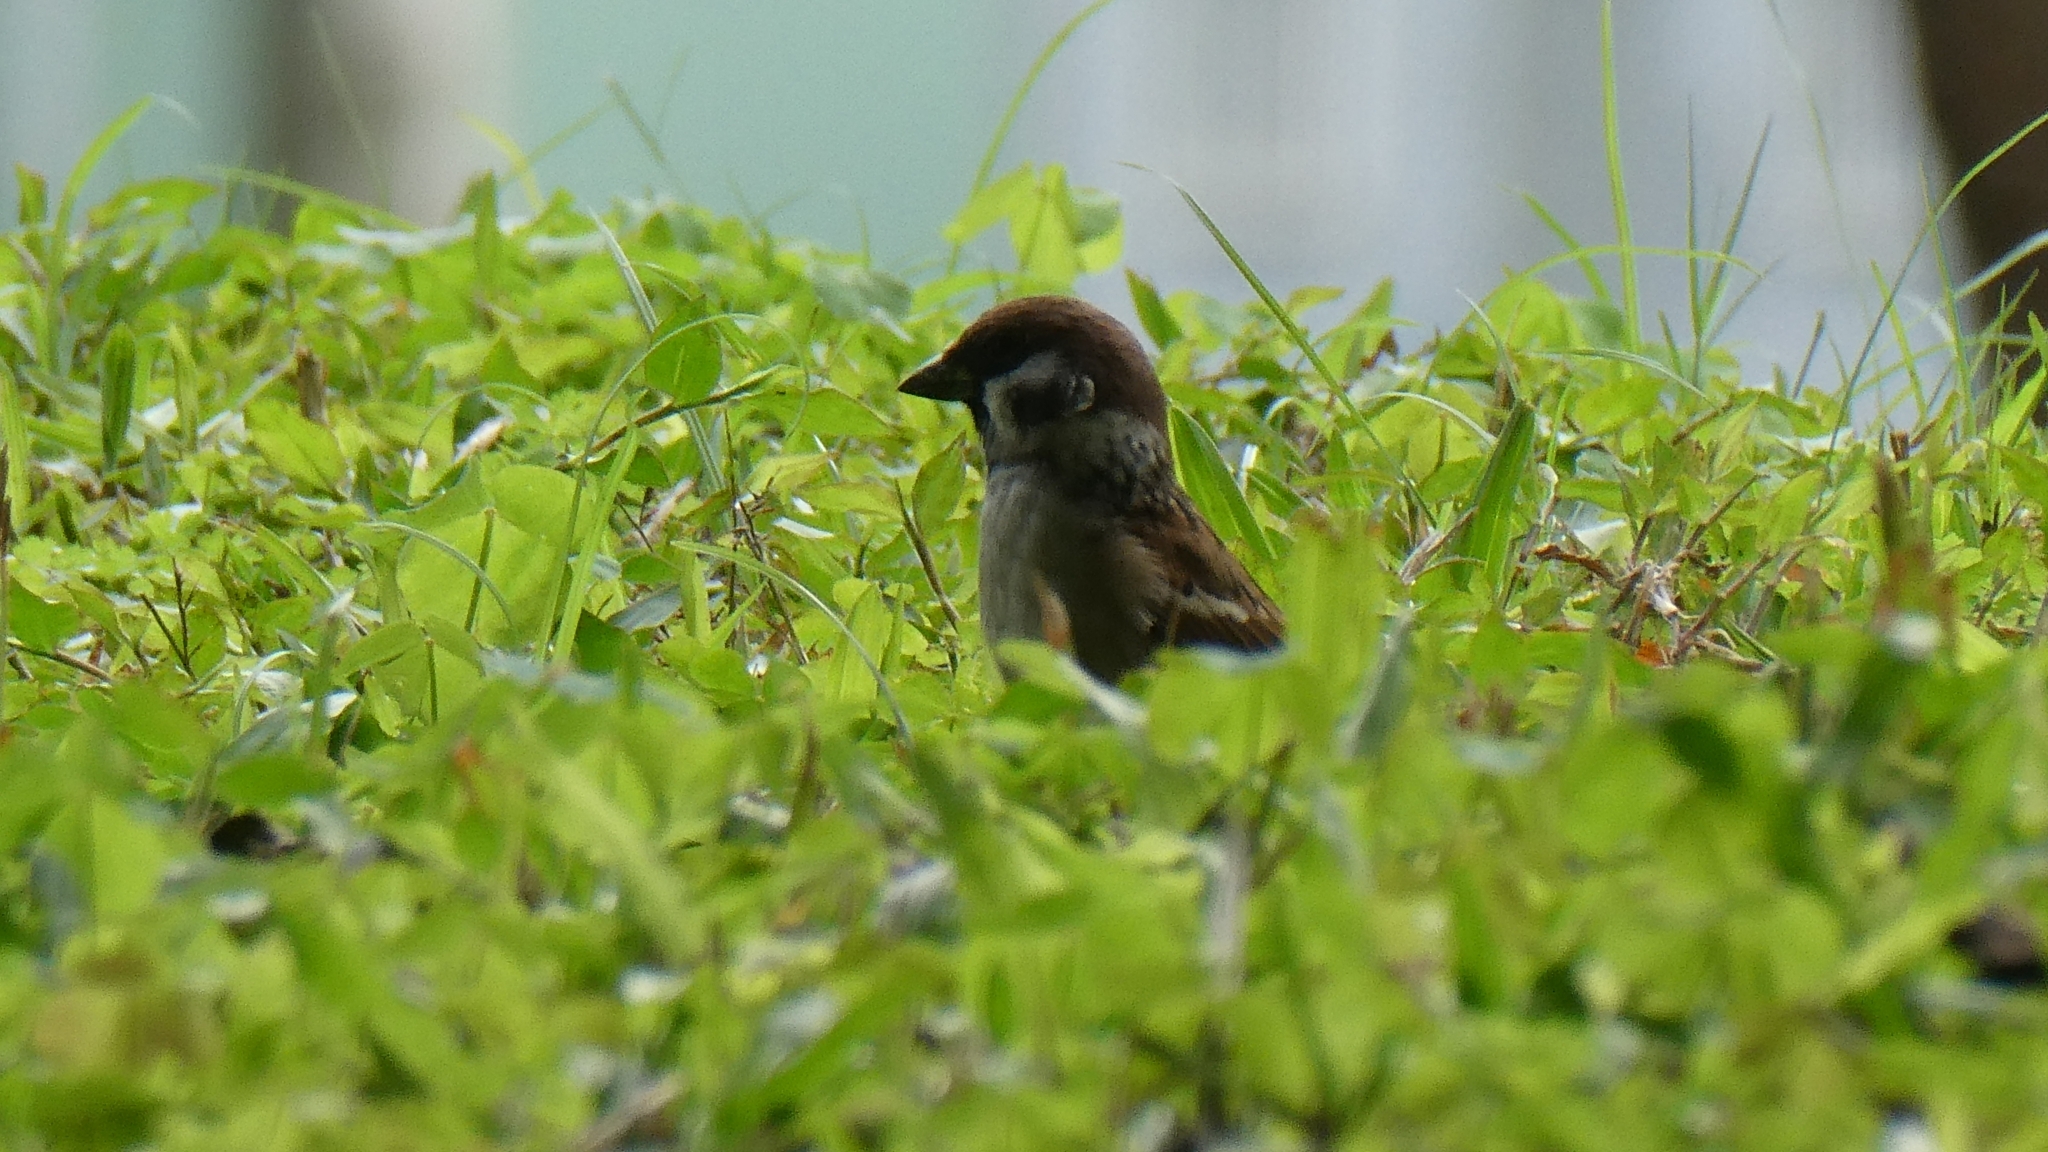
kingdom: Animalia
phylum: Chordata
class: Aves
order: Passeriformes
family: Passeridae
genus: Passer
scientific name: Passer montanus
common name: Eurasian tree sparrow
